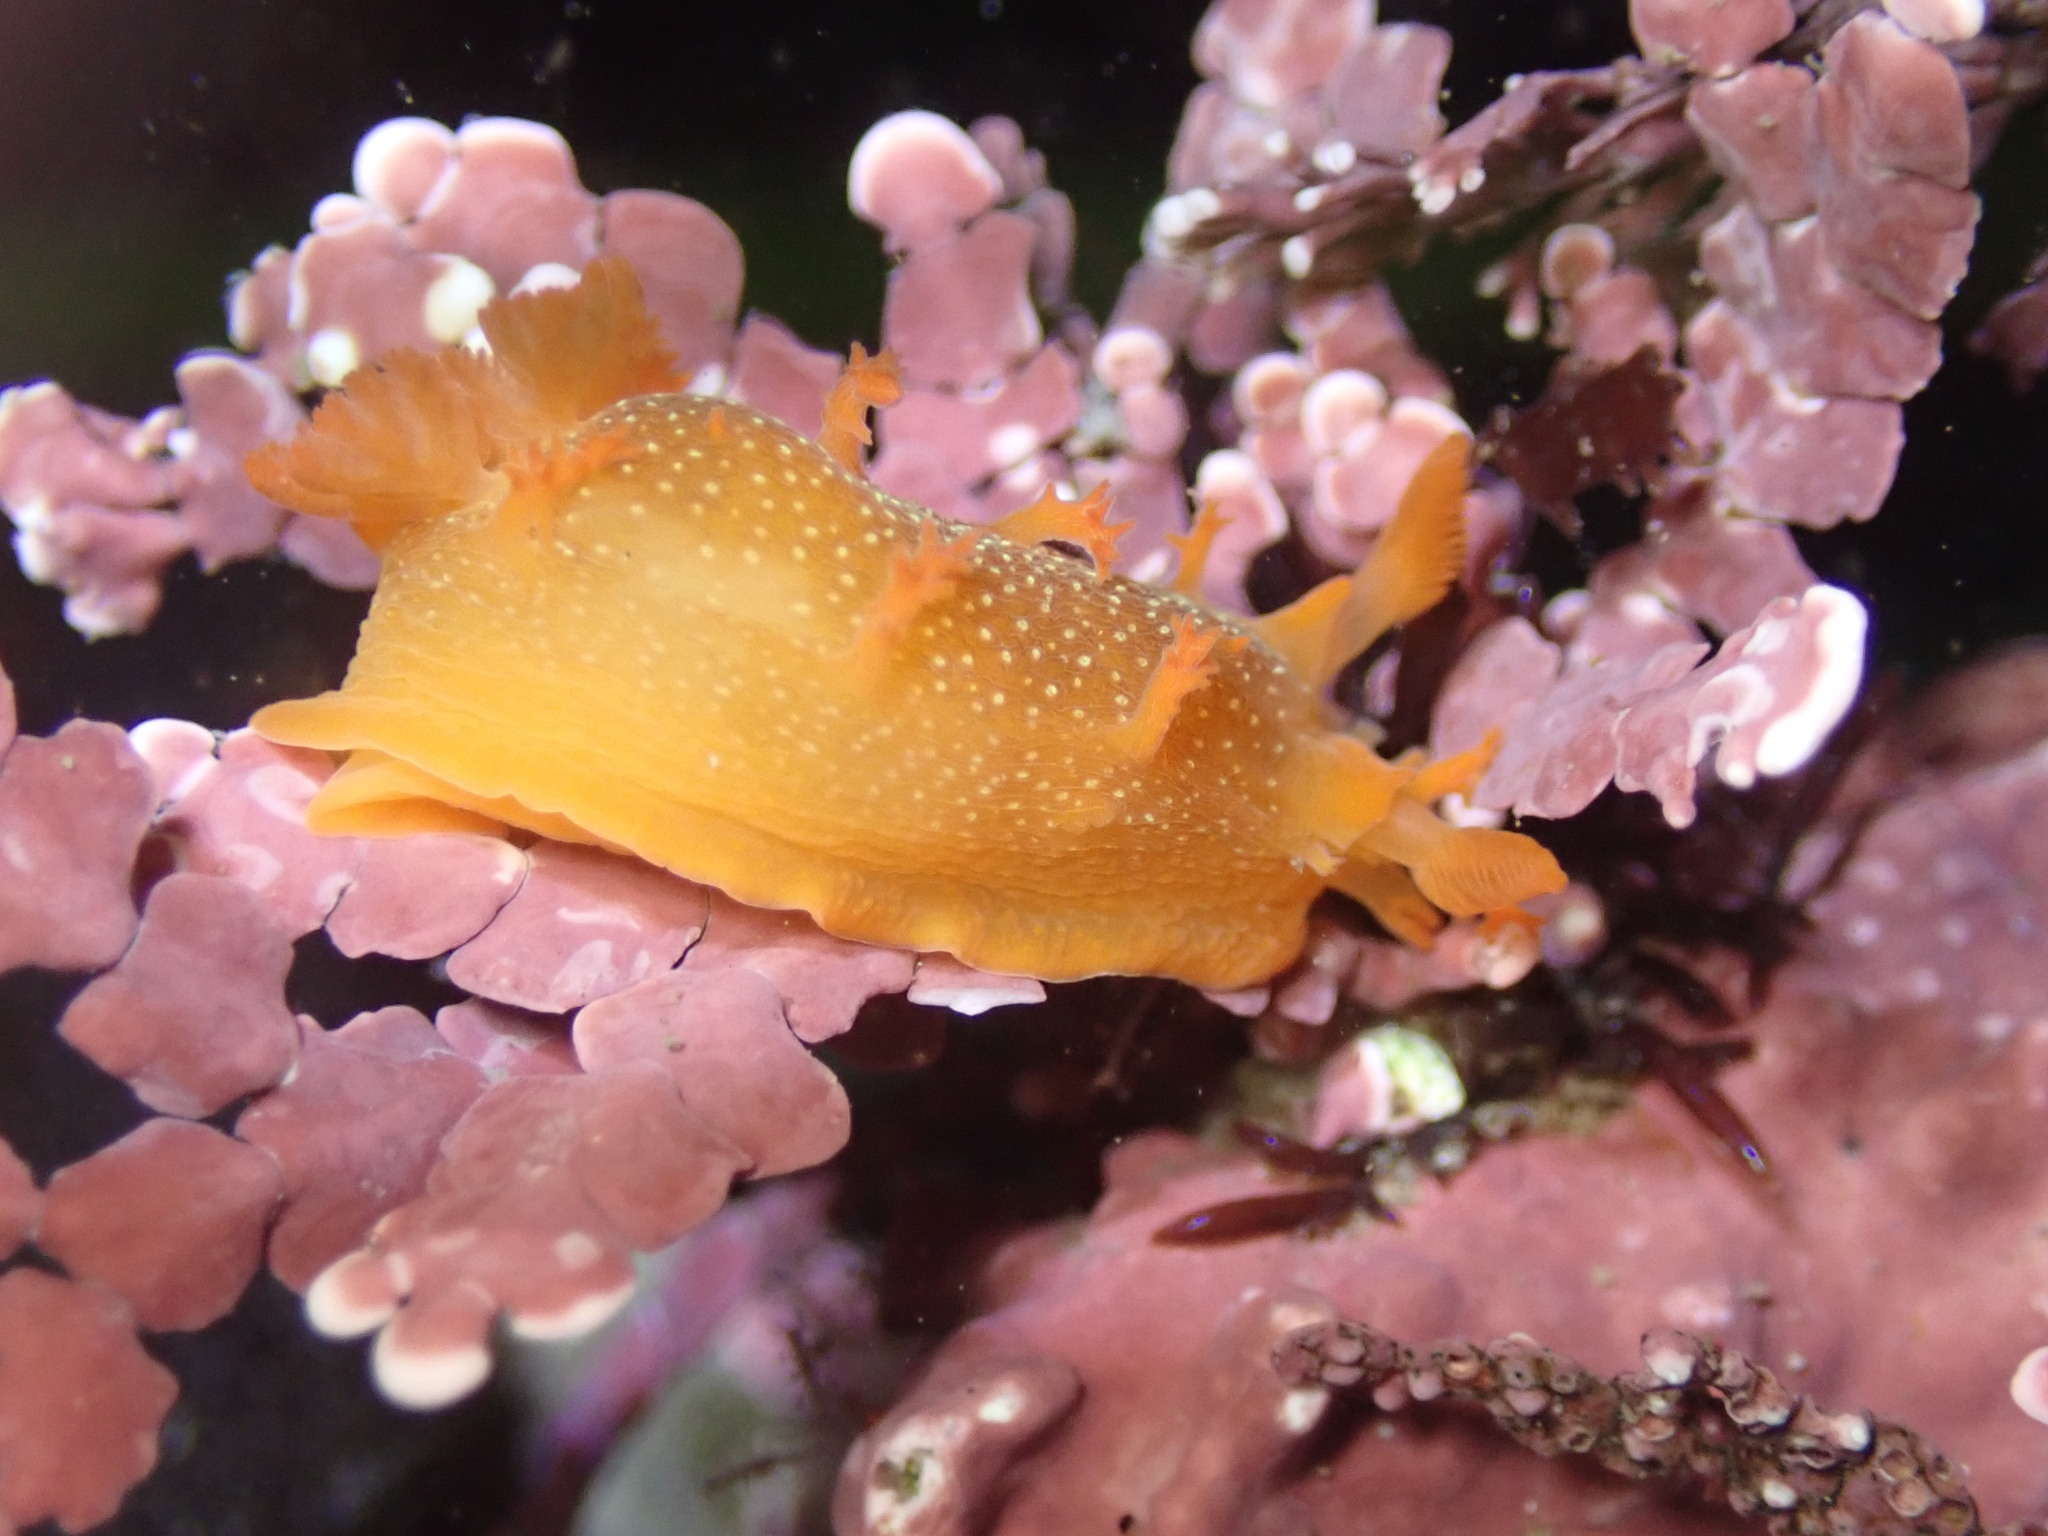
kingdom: Animalia
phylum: Mollusca
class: Gastropoda
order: Nudibranchia
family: Polyceridae
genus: Triopha
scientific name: Triopha maculata
